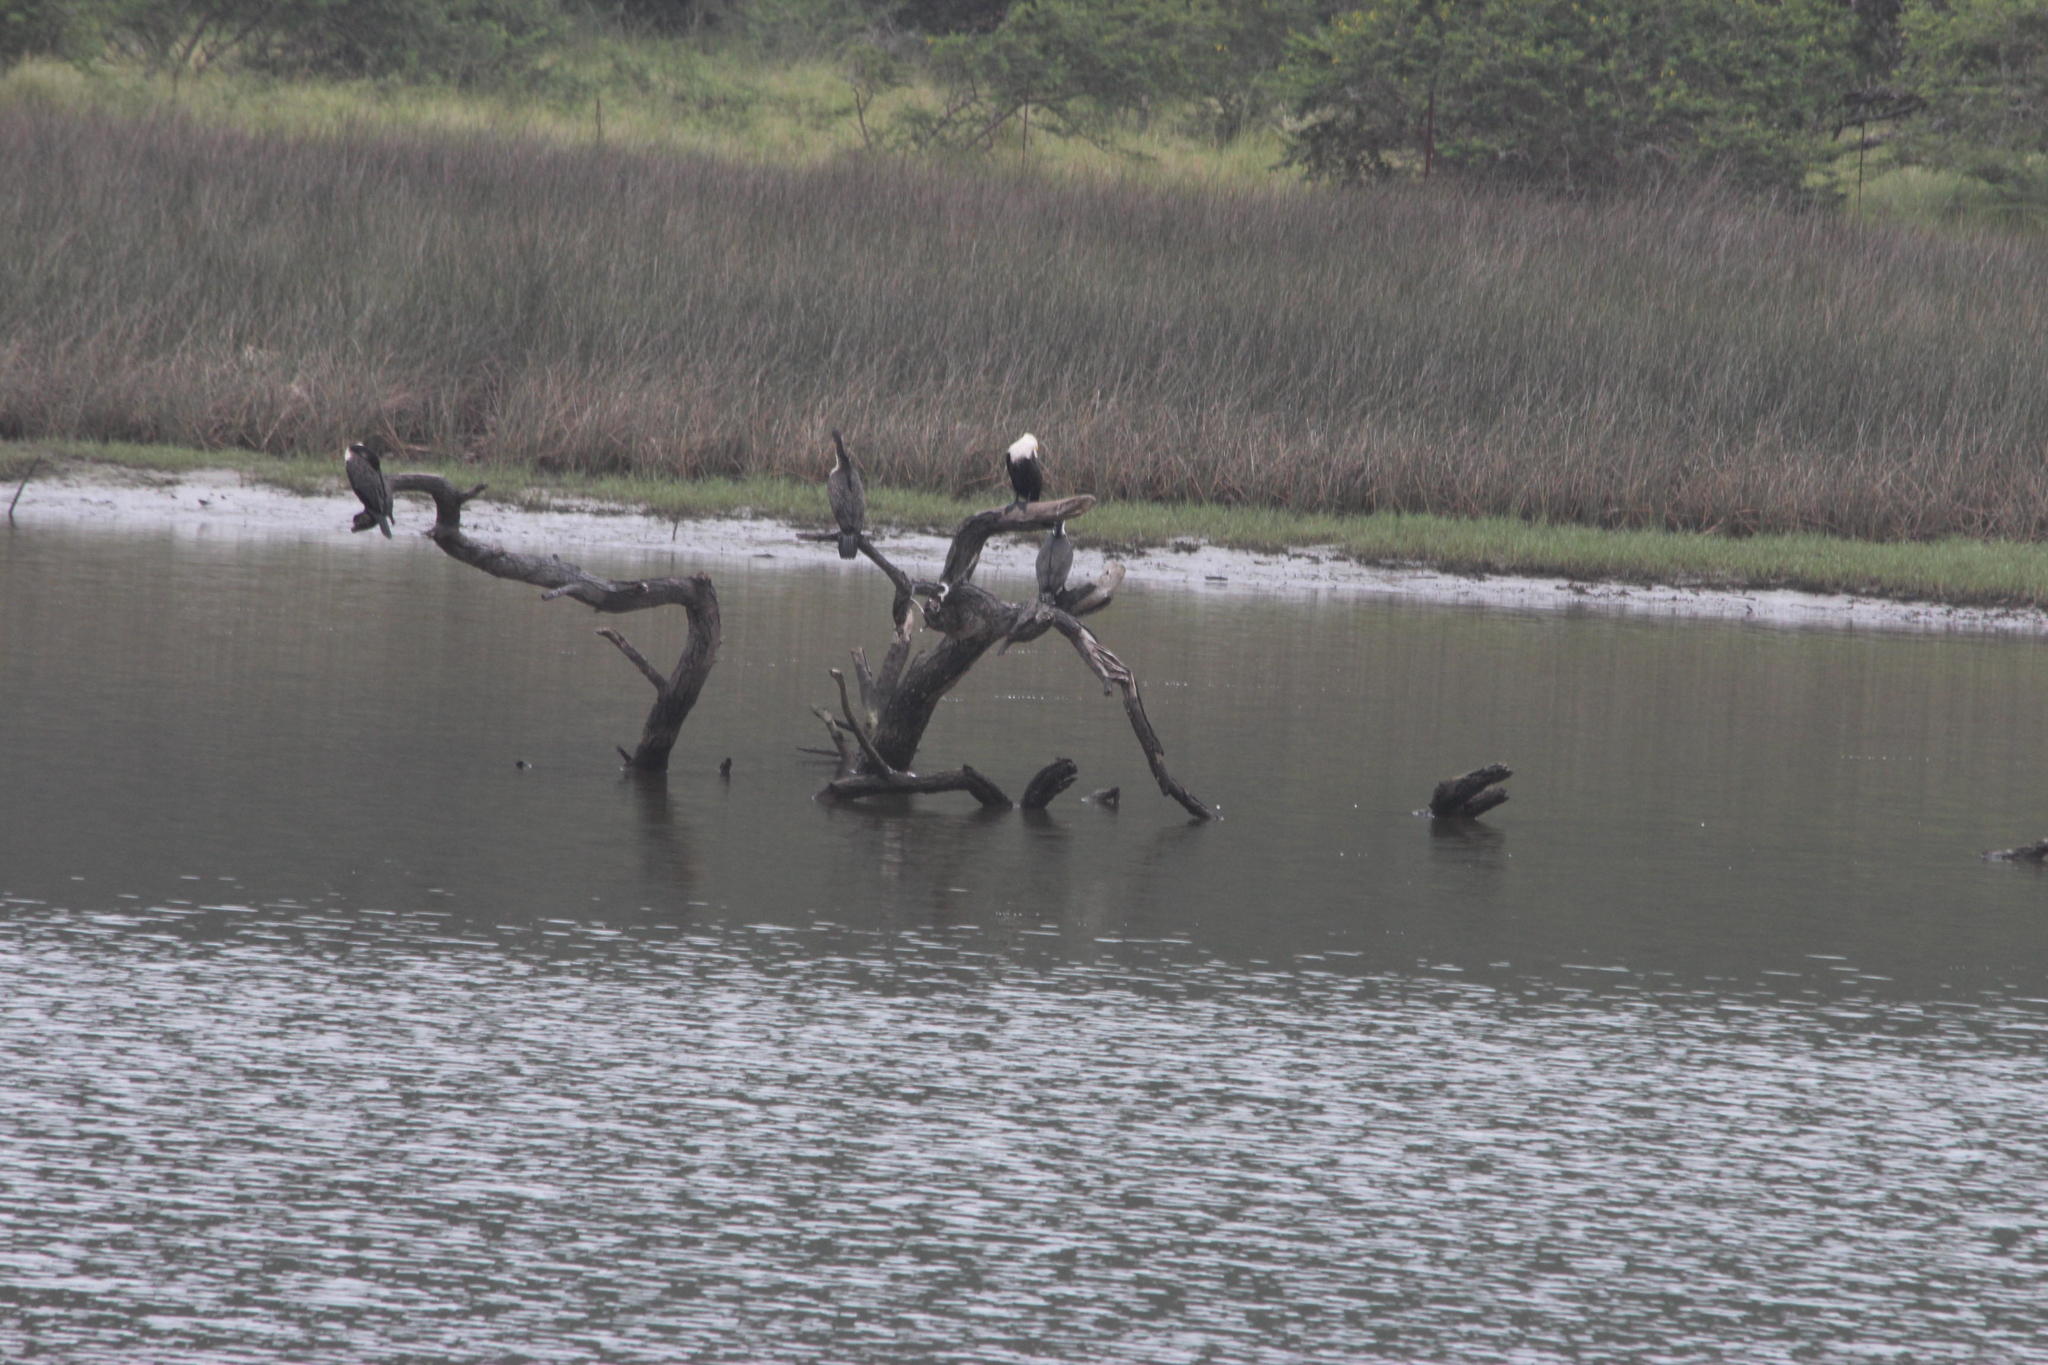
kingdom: Animalia
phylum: Chordata
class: Aves
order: Accipitriformes
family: Accipitridae
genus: Haliaeetus
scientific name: Haliaeetus vocifer
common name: African fish eagle
